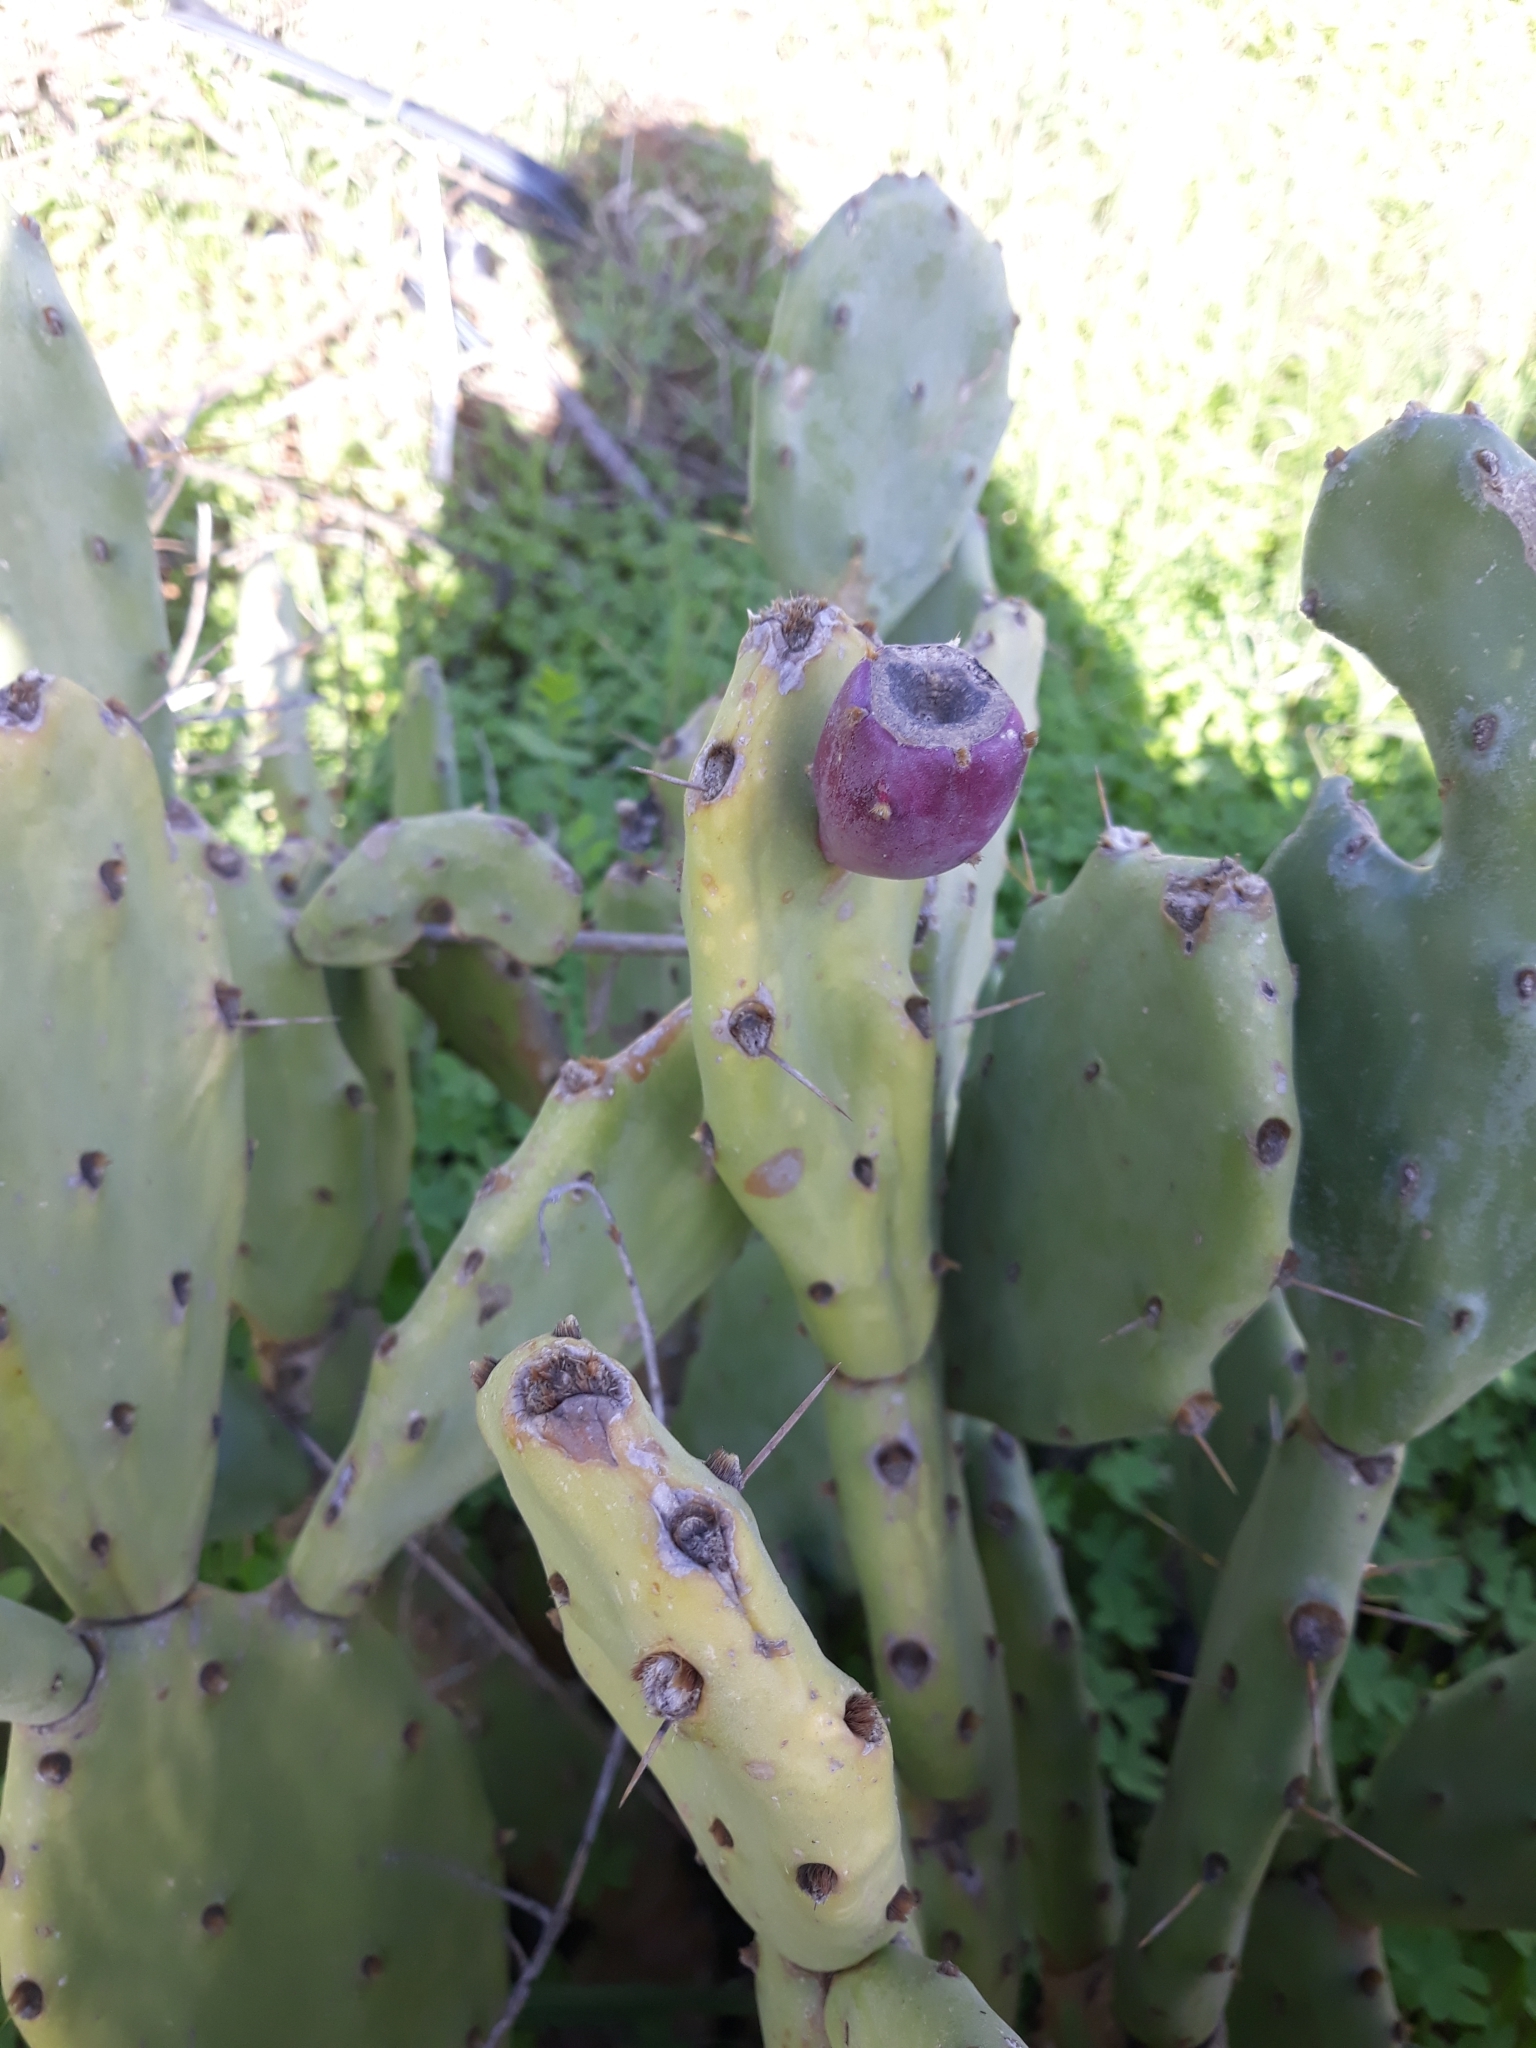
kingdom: Plantae
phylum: Tracheophyta
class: Magnoliopsida
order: Caryophyllales
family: Cactaceae
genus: Opuntia
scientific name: Opuntia stricta
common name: Erect pricklypear
